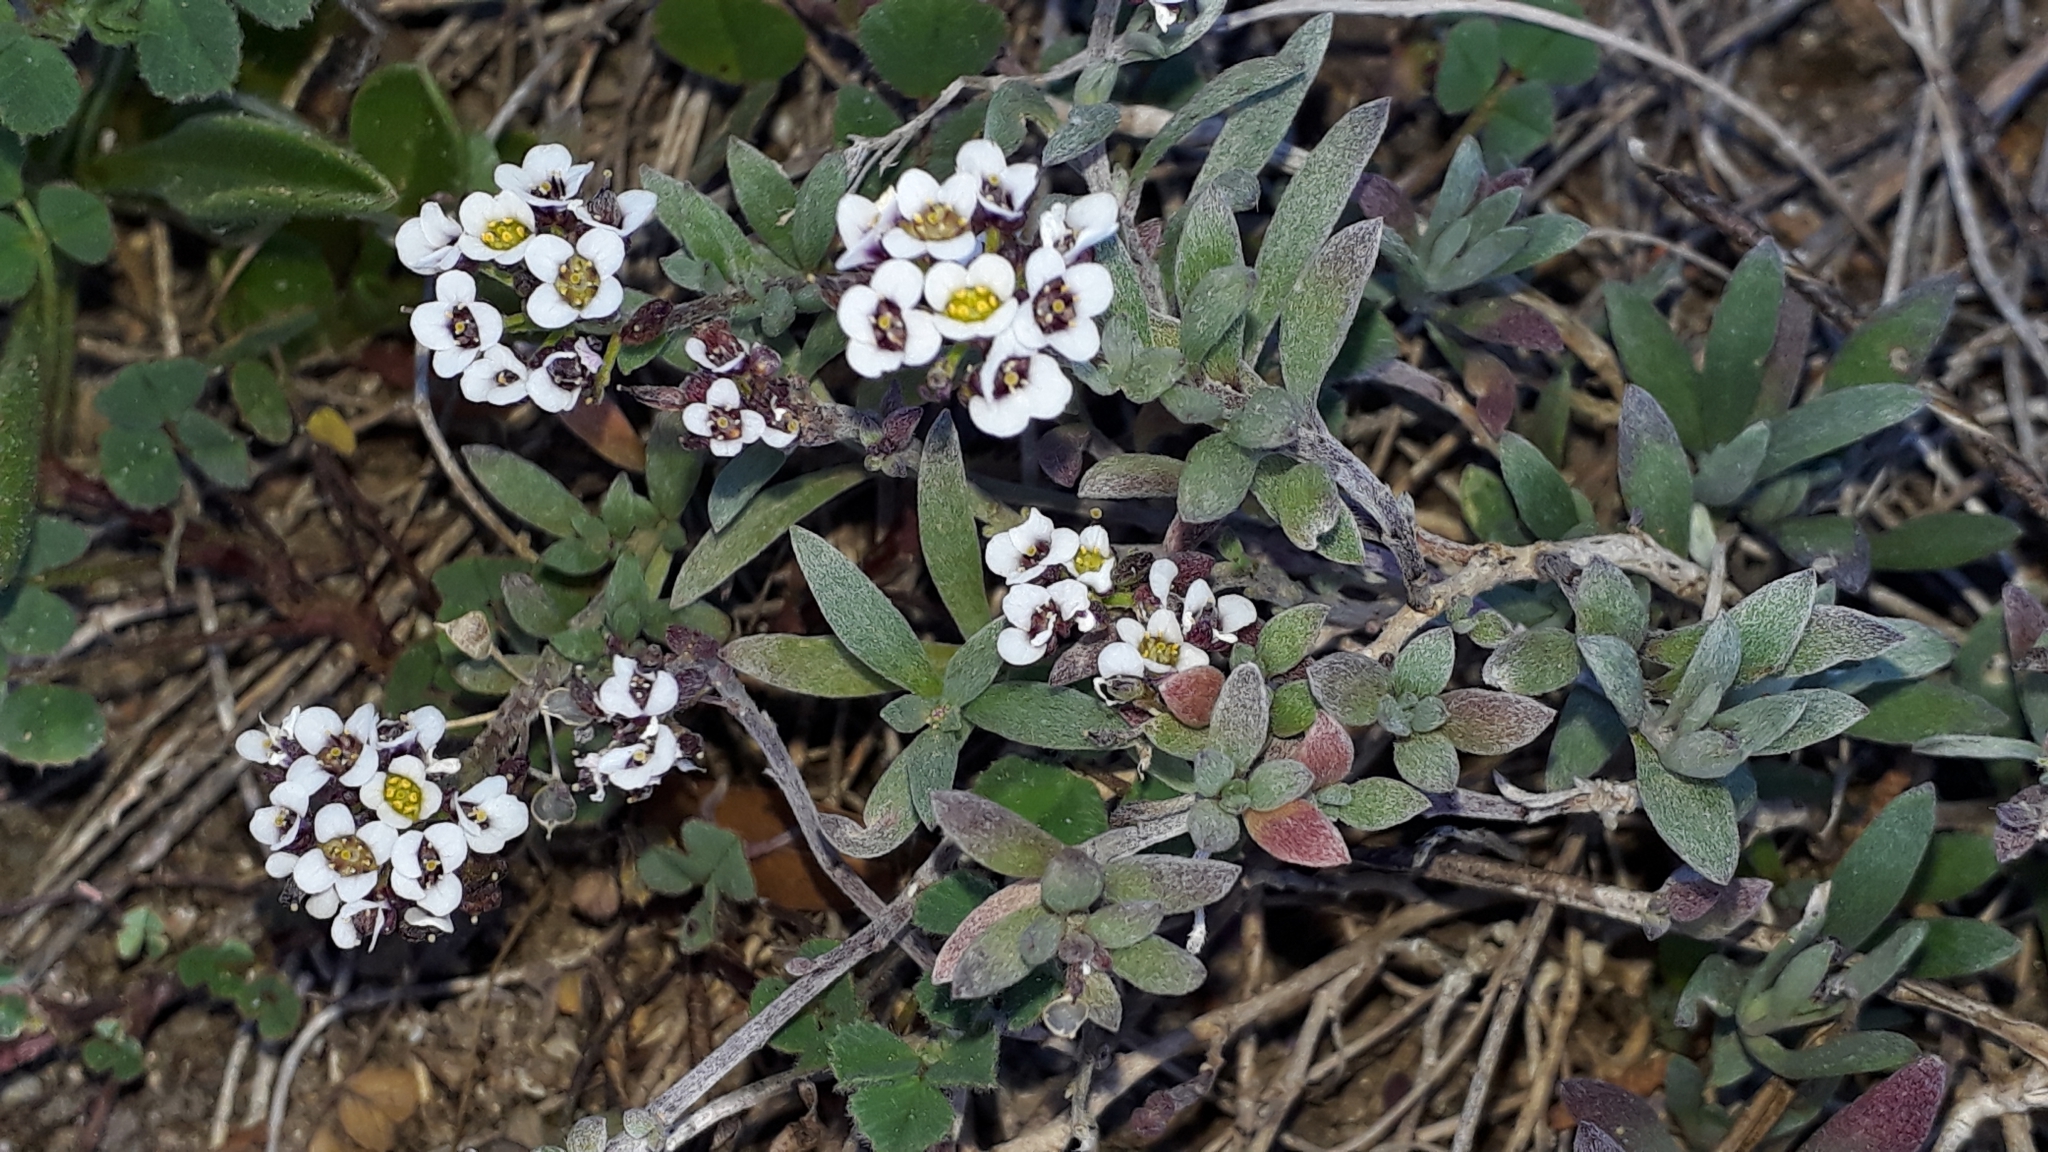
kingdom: Plantae
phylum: Tracheophyta
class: Magnoliopsida
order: Brassicales
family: Brassicaceae
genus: Lobularia
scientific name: Lobularia maritima
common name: Sweet alison
